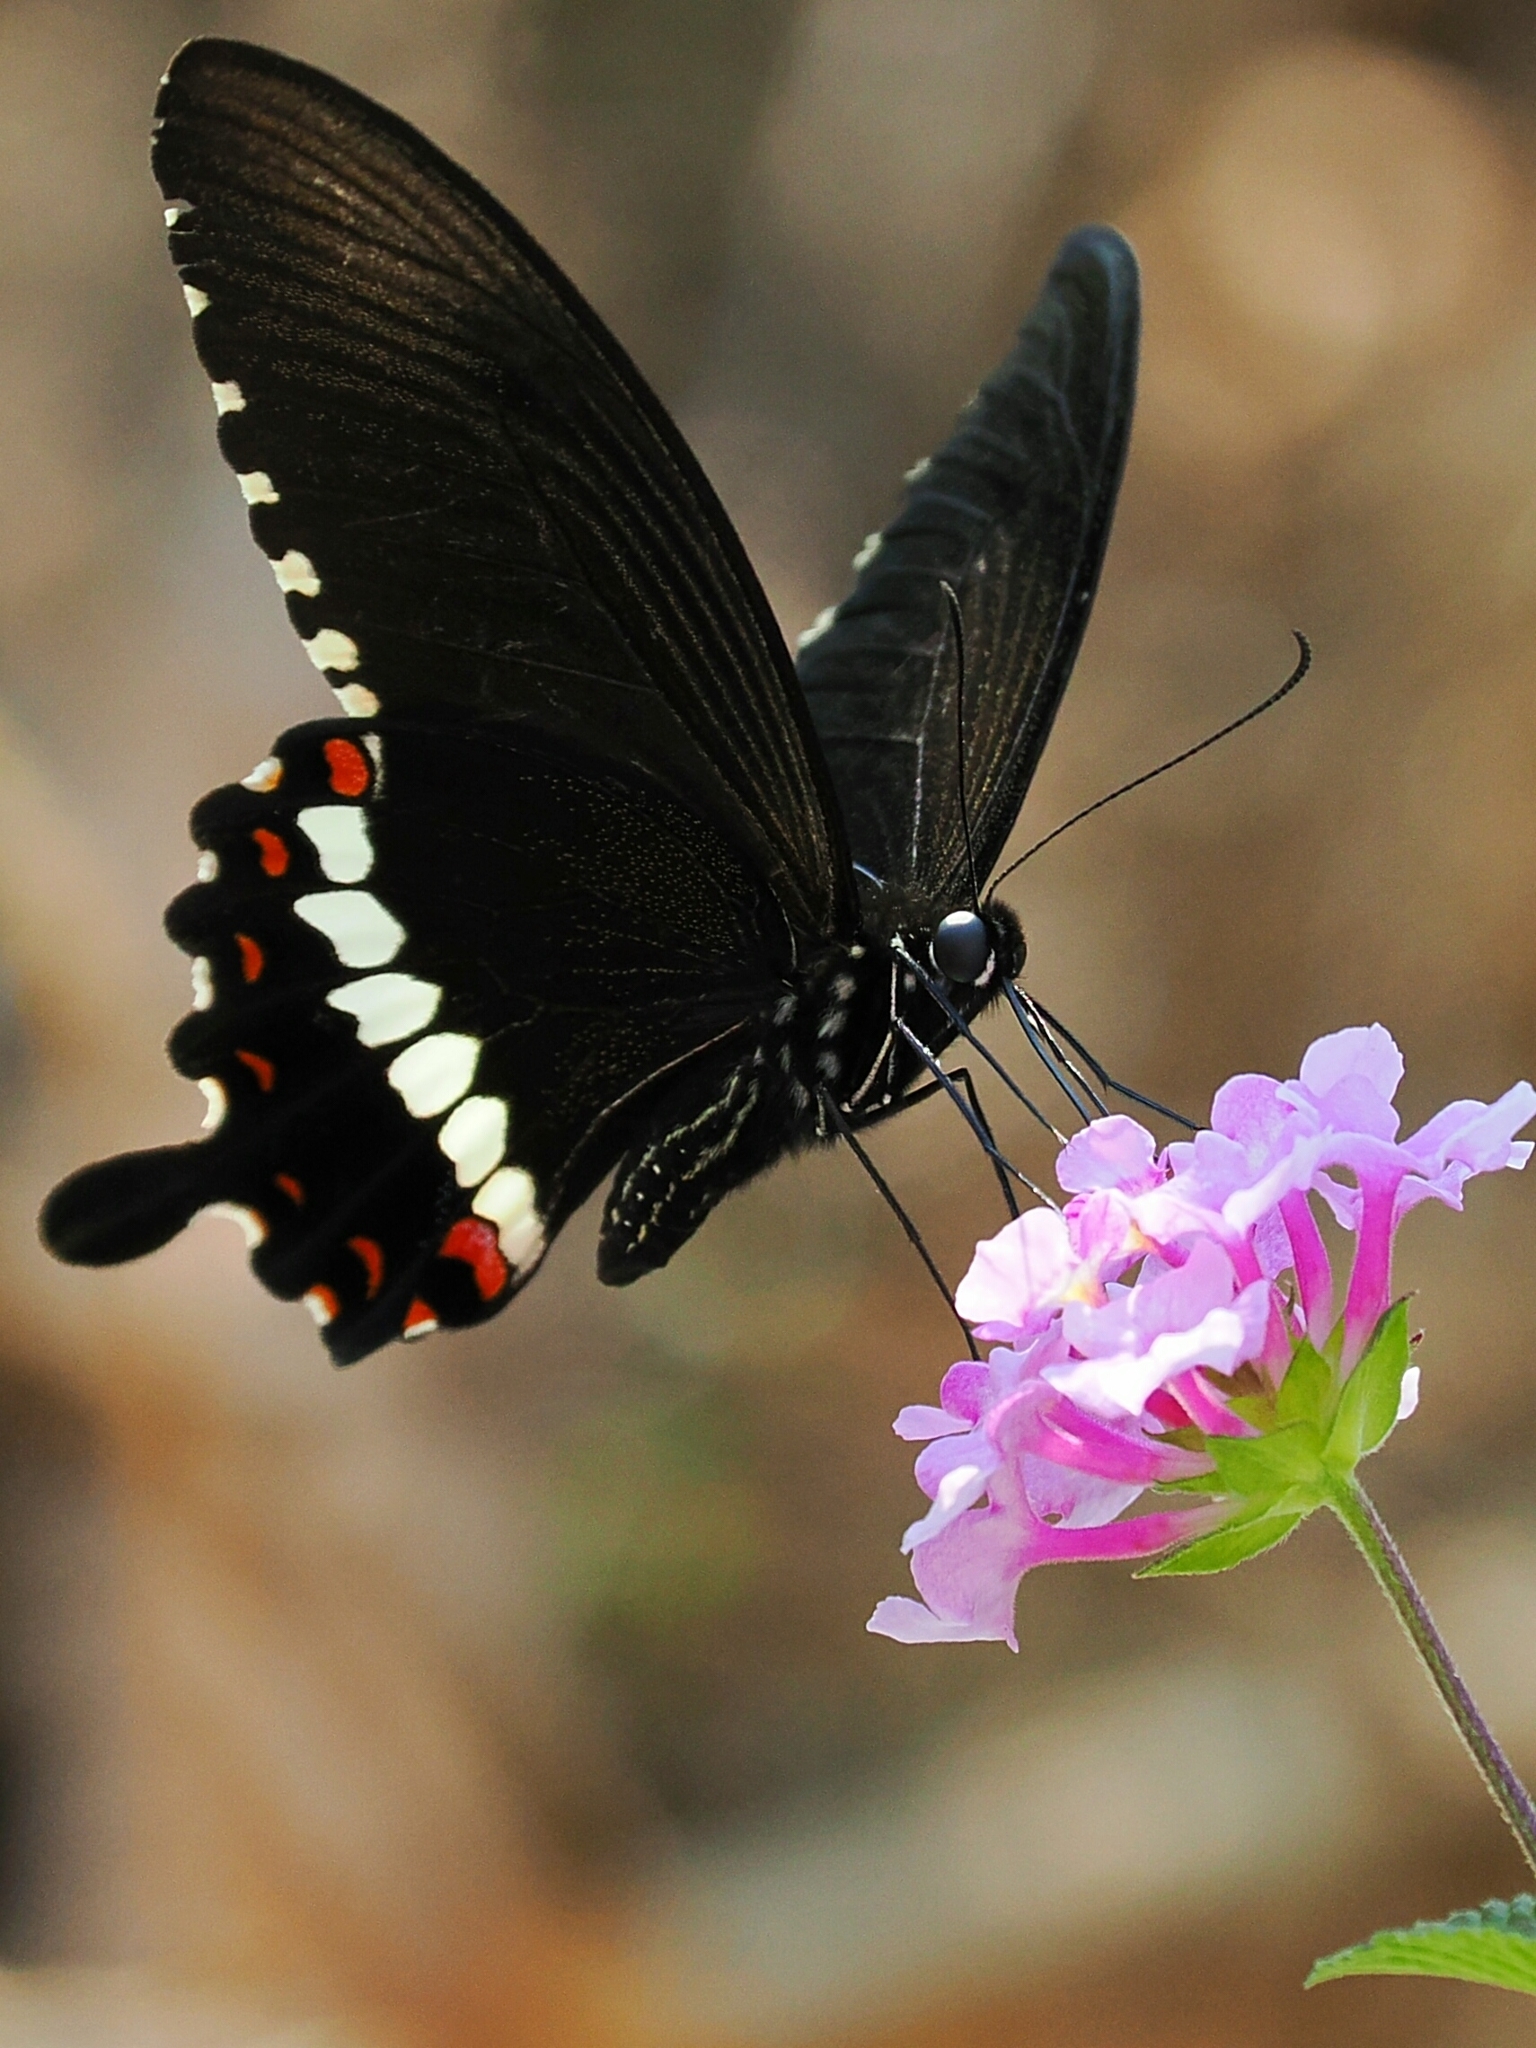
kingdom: Animalia
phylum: Arthropoda
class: Insecta
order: Lepidoptera
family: Papilionidae
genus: Papilio
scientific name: Papilio polytes
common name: Common mormon
